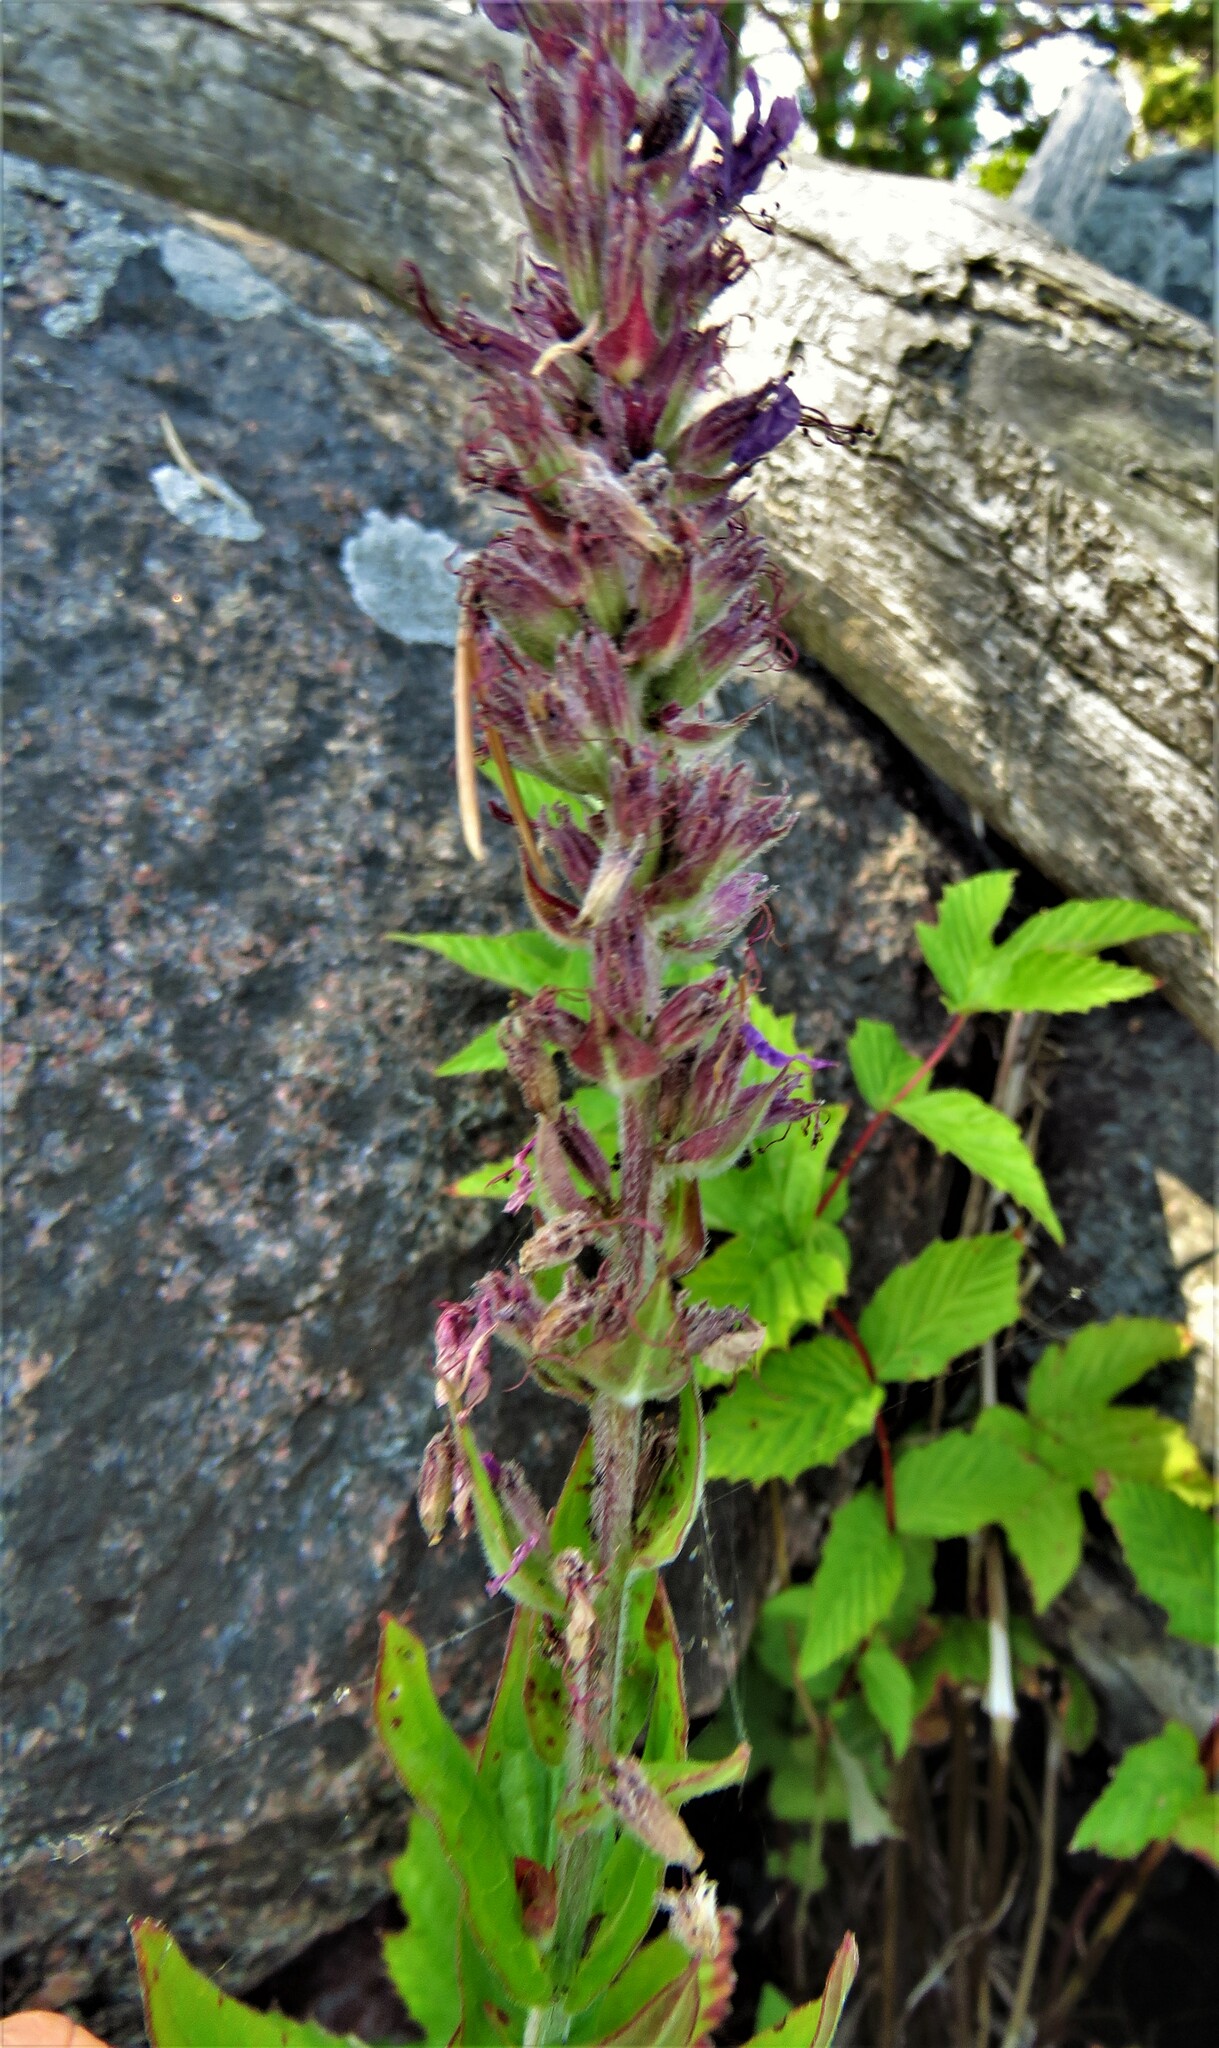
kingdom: Plantae
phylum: Tracheophyta
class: Magnoliopsida
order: Myrtales
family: Lythraceae
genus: Lythrum
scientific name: Lythrum salicaria
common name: Purple loosestrife
